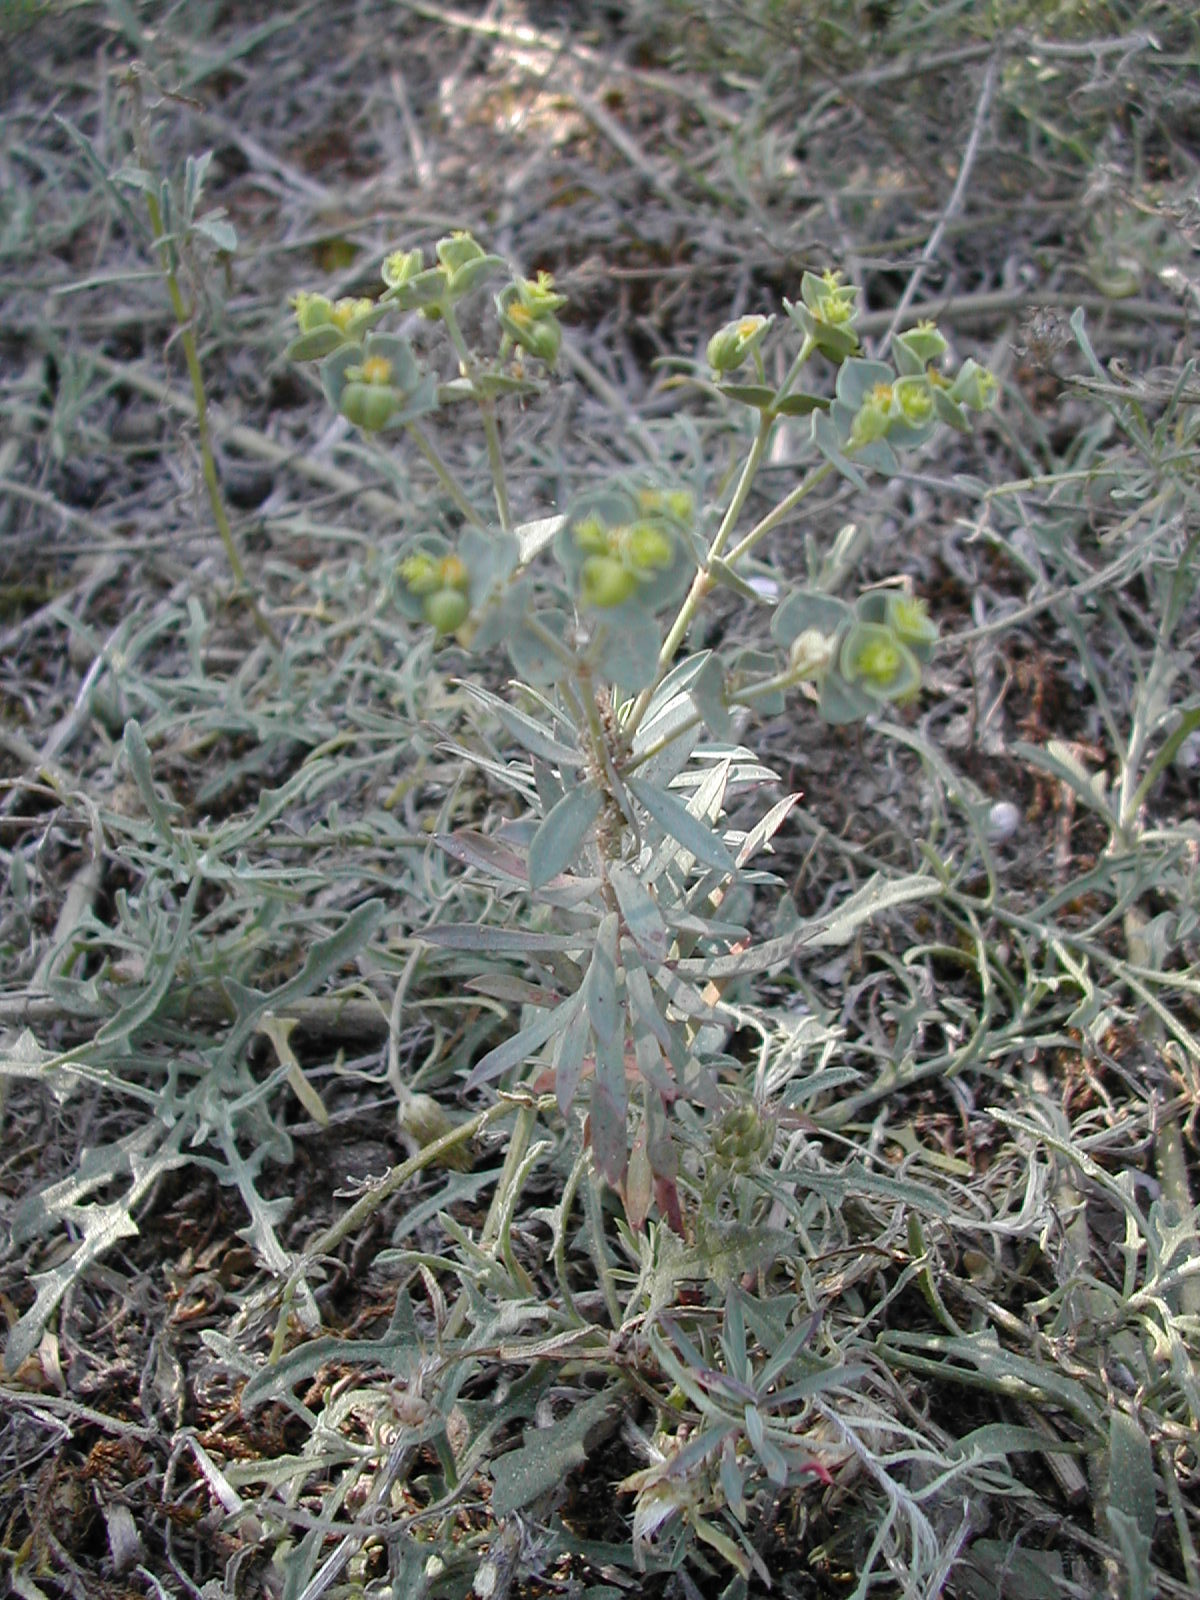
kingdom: Plantae
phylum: Tracheophyta
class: Magnoliopsida
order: Malpighiales
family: Euphorbiaceae
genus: Euphorbia
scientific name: Euphorbia portlandica
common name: Portland spurge
